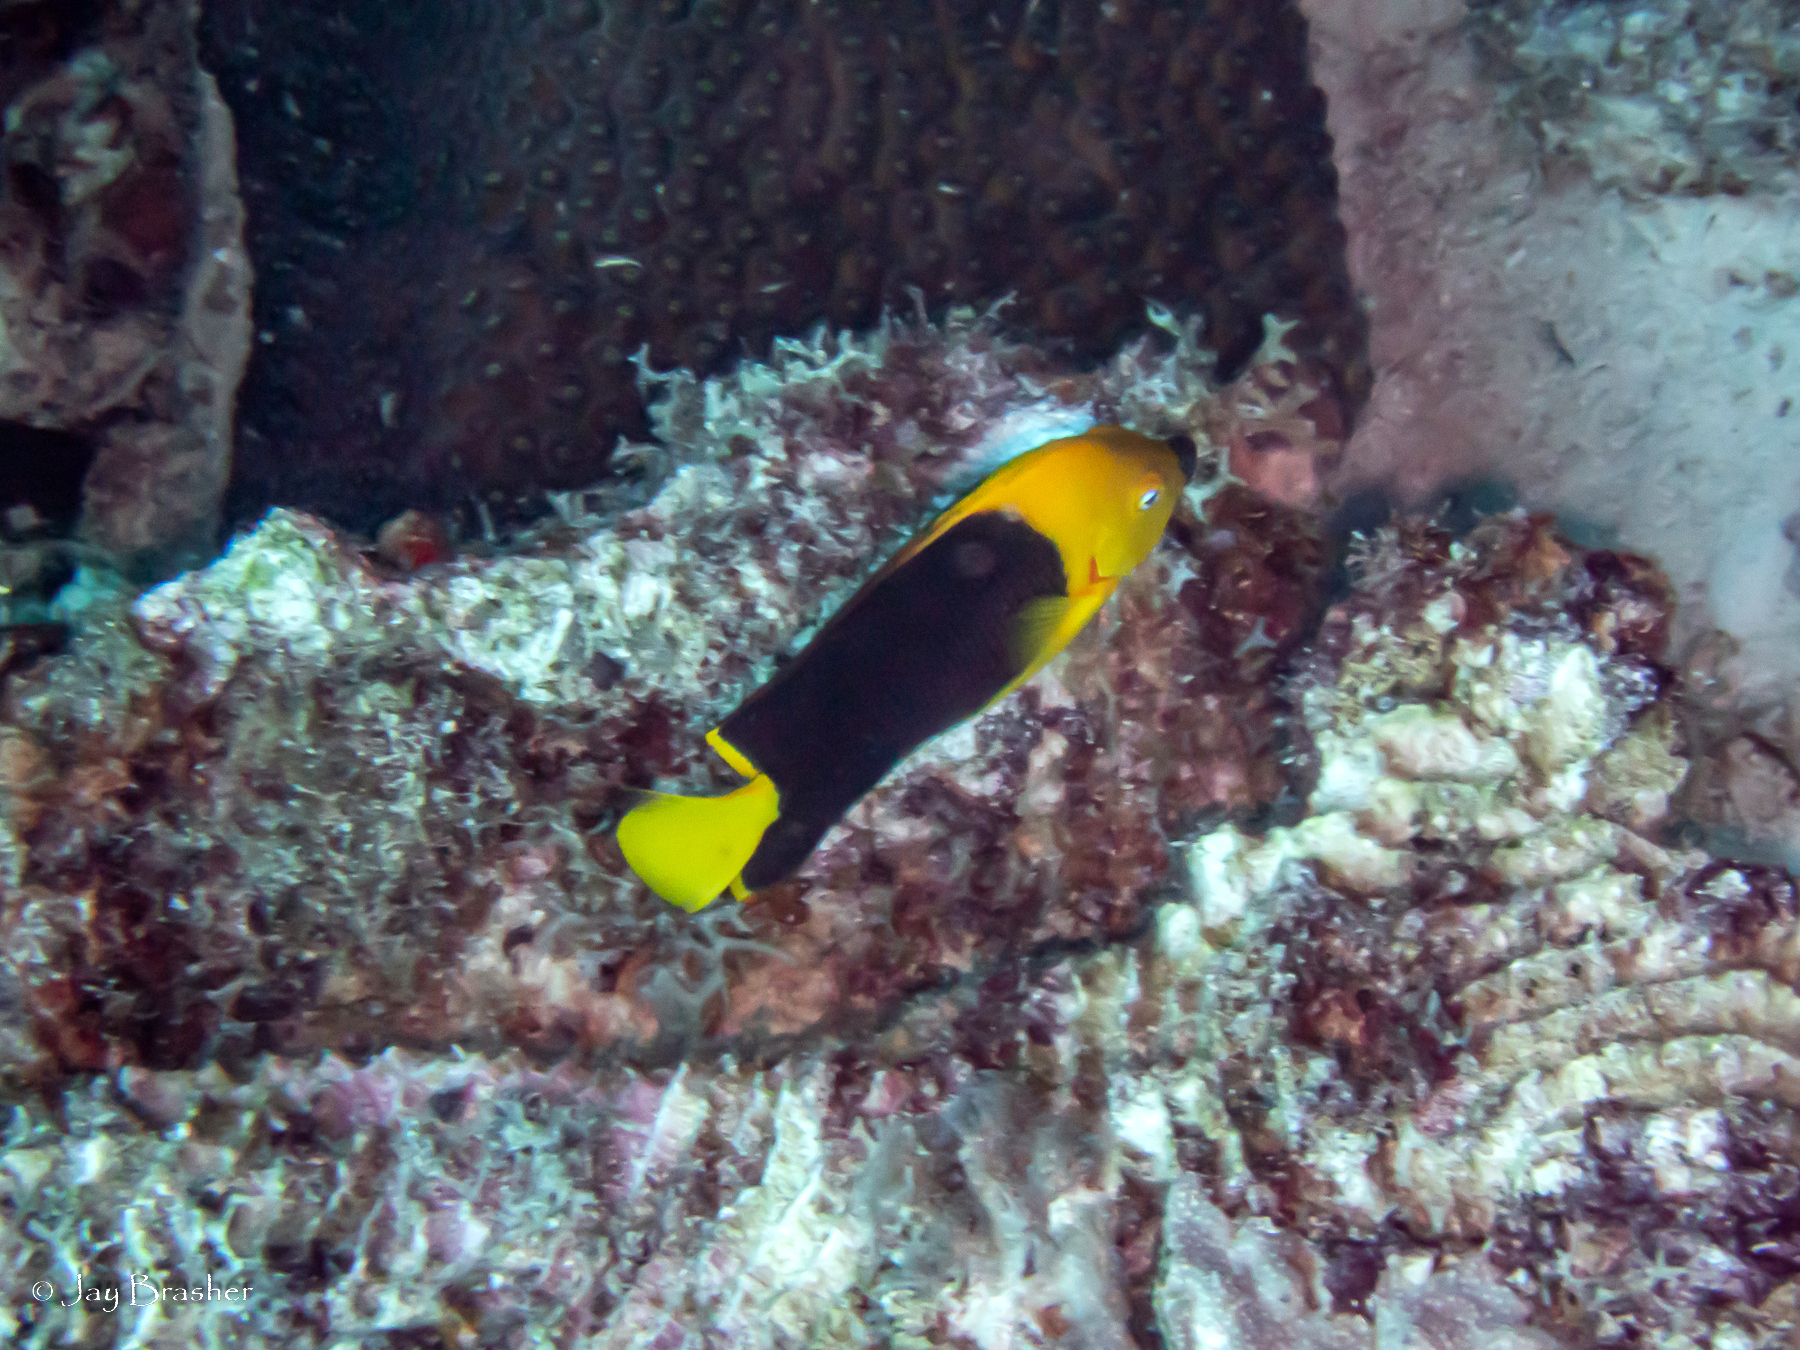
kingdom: Animalia
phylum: Chordata
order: Perciformes
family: Pomacanthidae
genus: Holacanthus
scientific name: Holacanthus tricolor
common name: Rock beauty
